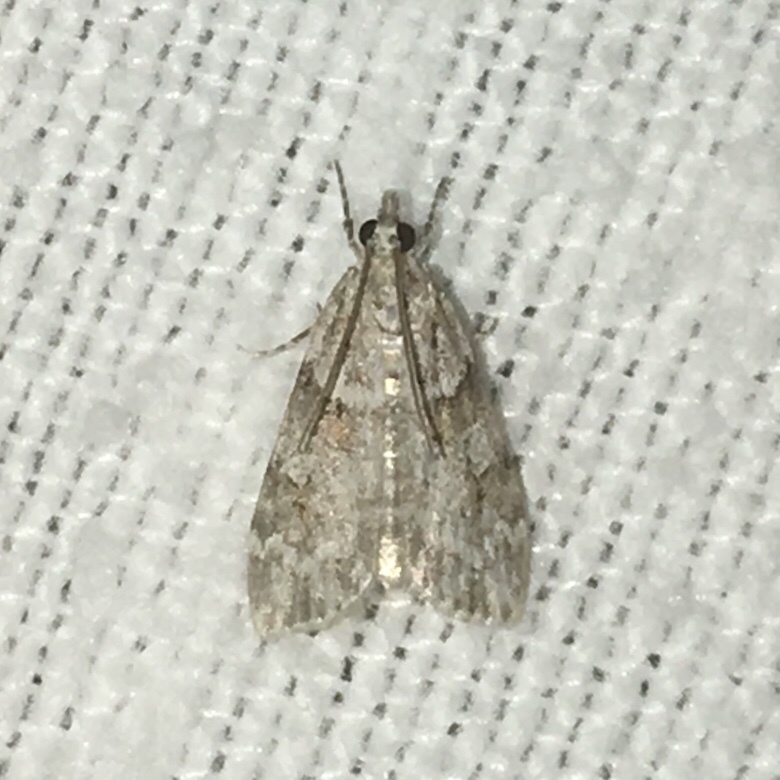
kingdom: Animalia
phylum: Arthropoda
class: Insecta
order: Lepidoptera
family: Crambidae
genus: Scoparia
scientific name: Scoparia biplagialis
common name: Double-striped scoparia moth
